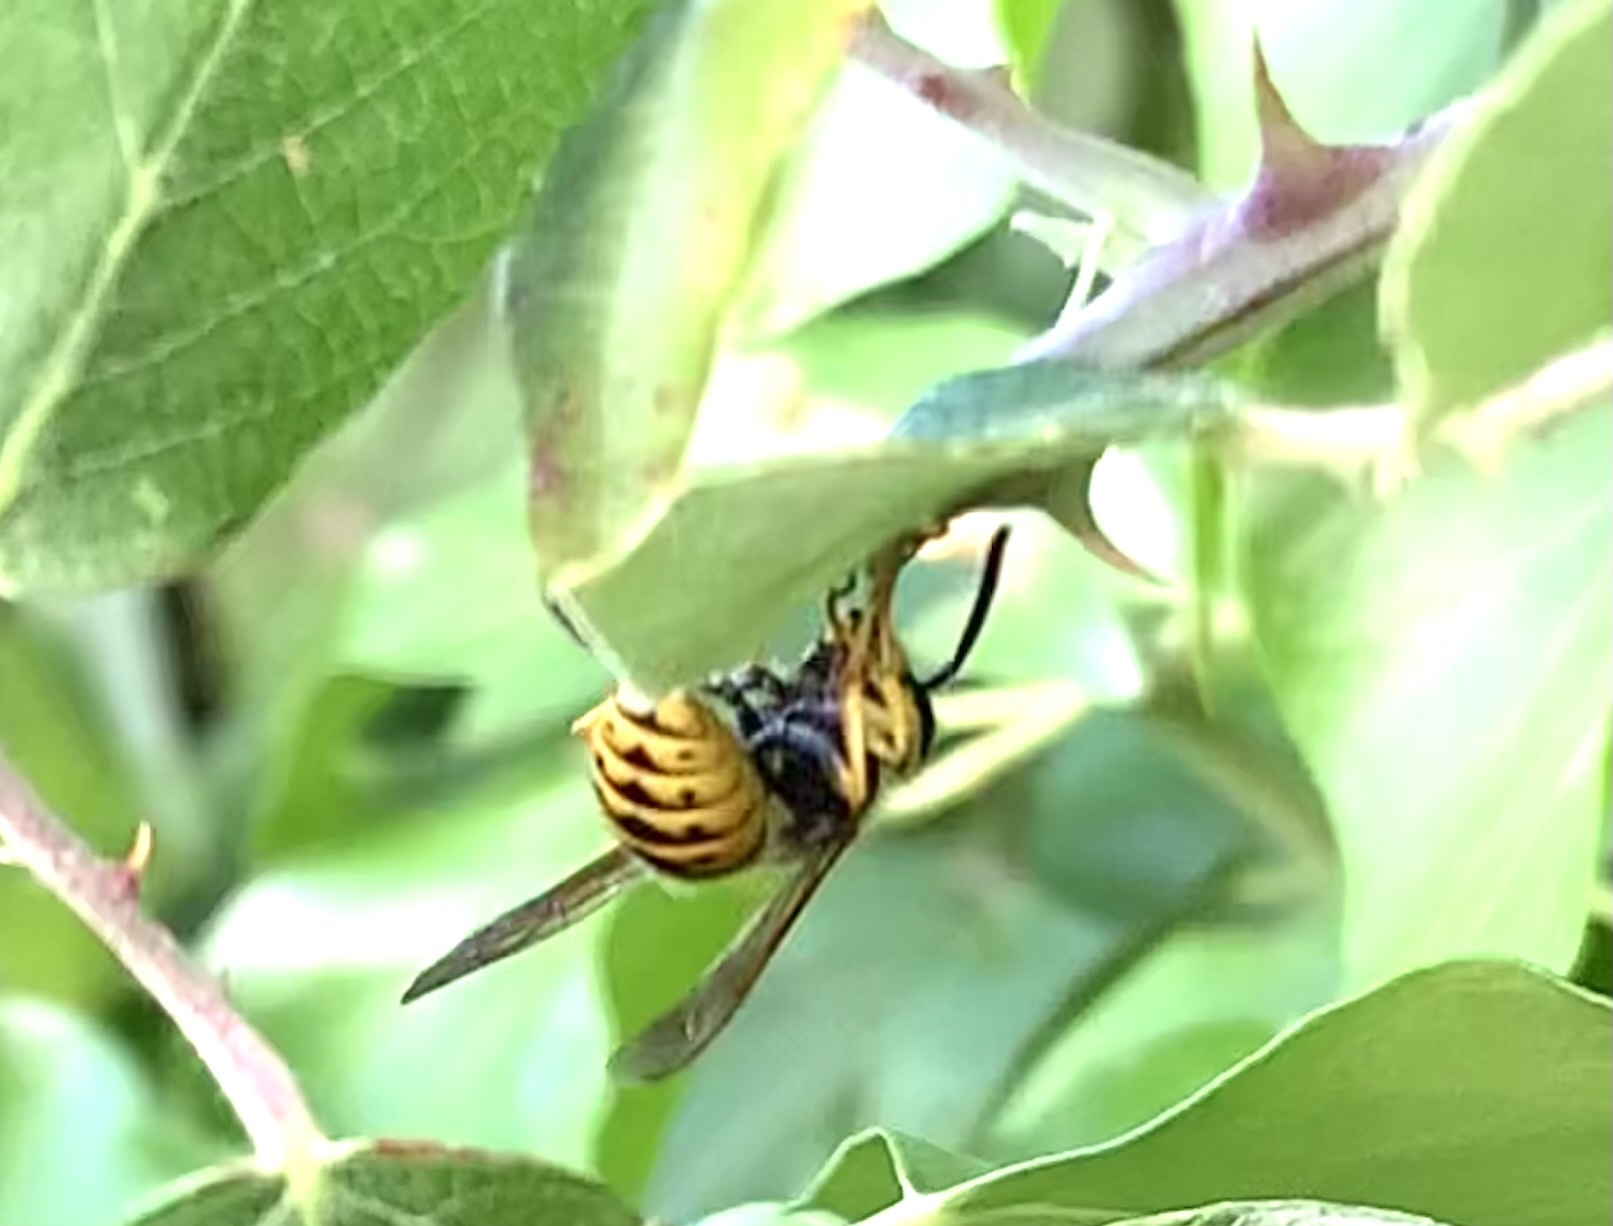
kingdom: Animalia
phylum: Arthropoda
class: Insecta
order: Hymenoptera
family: Vespidae
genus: Vespula
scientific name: Vespula germanica
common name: German wasp
